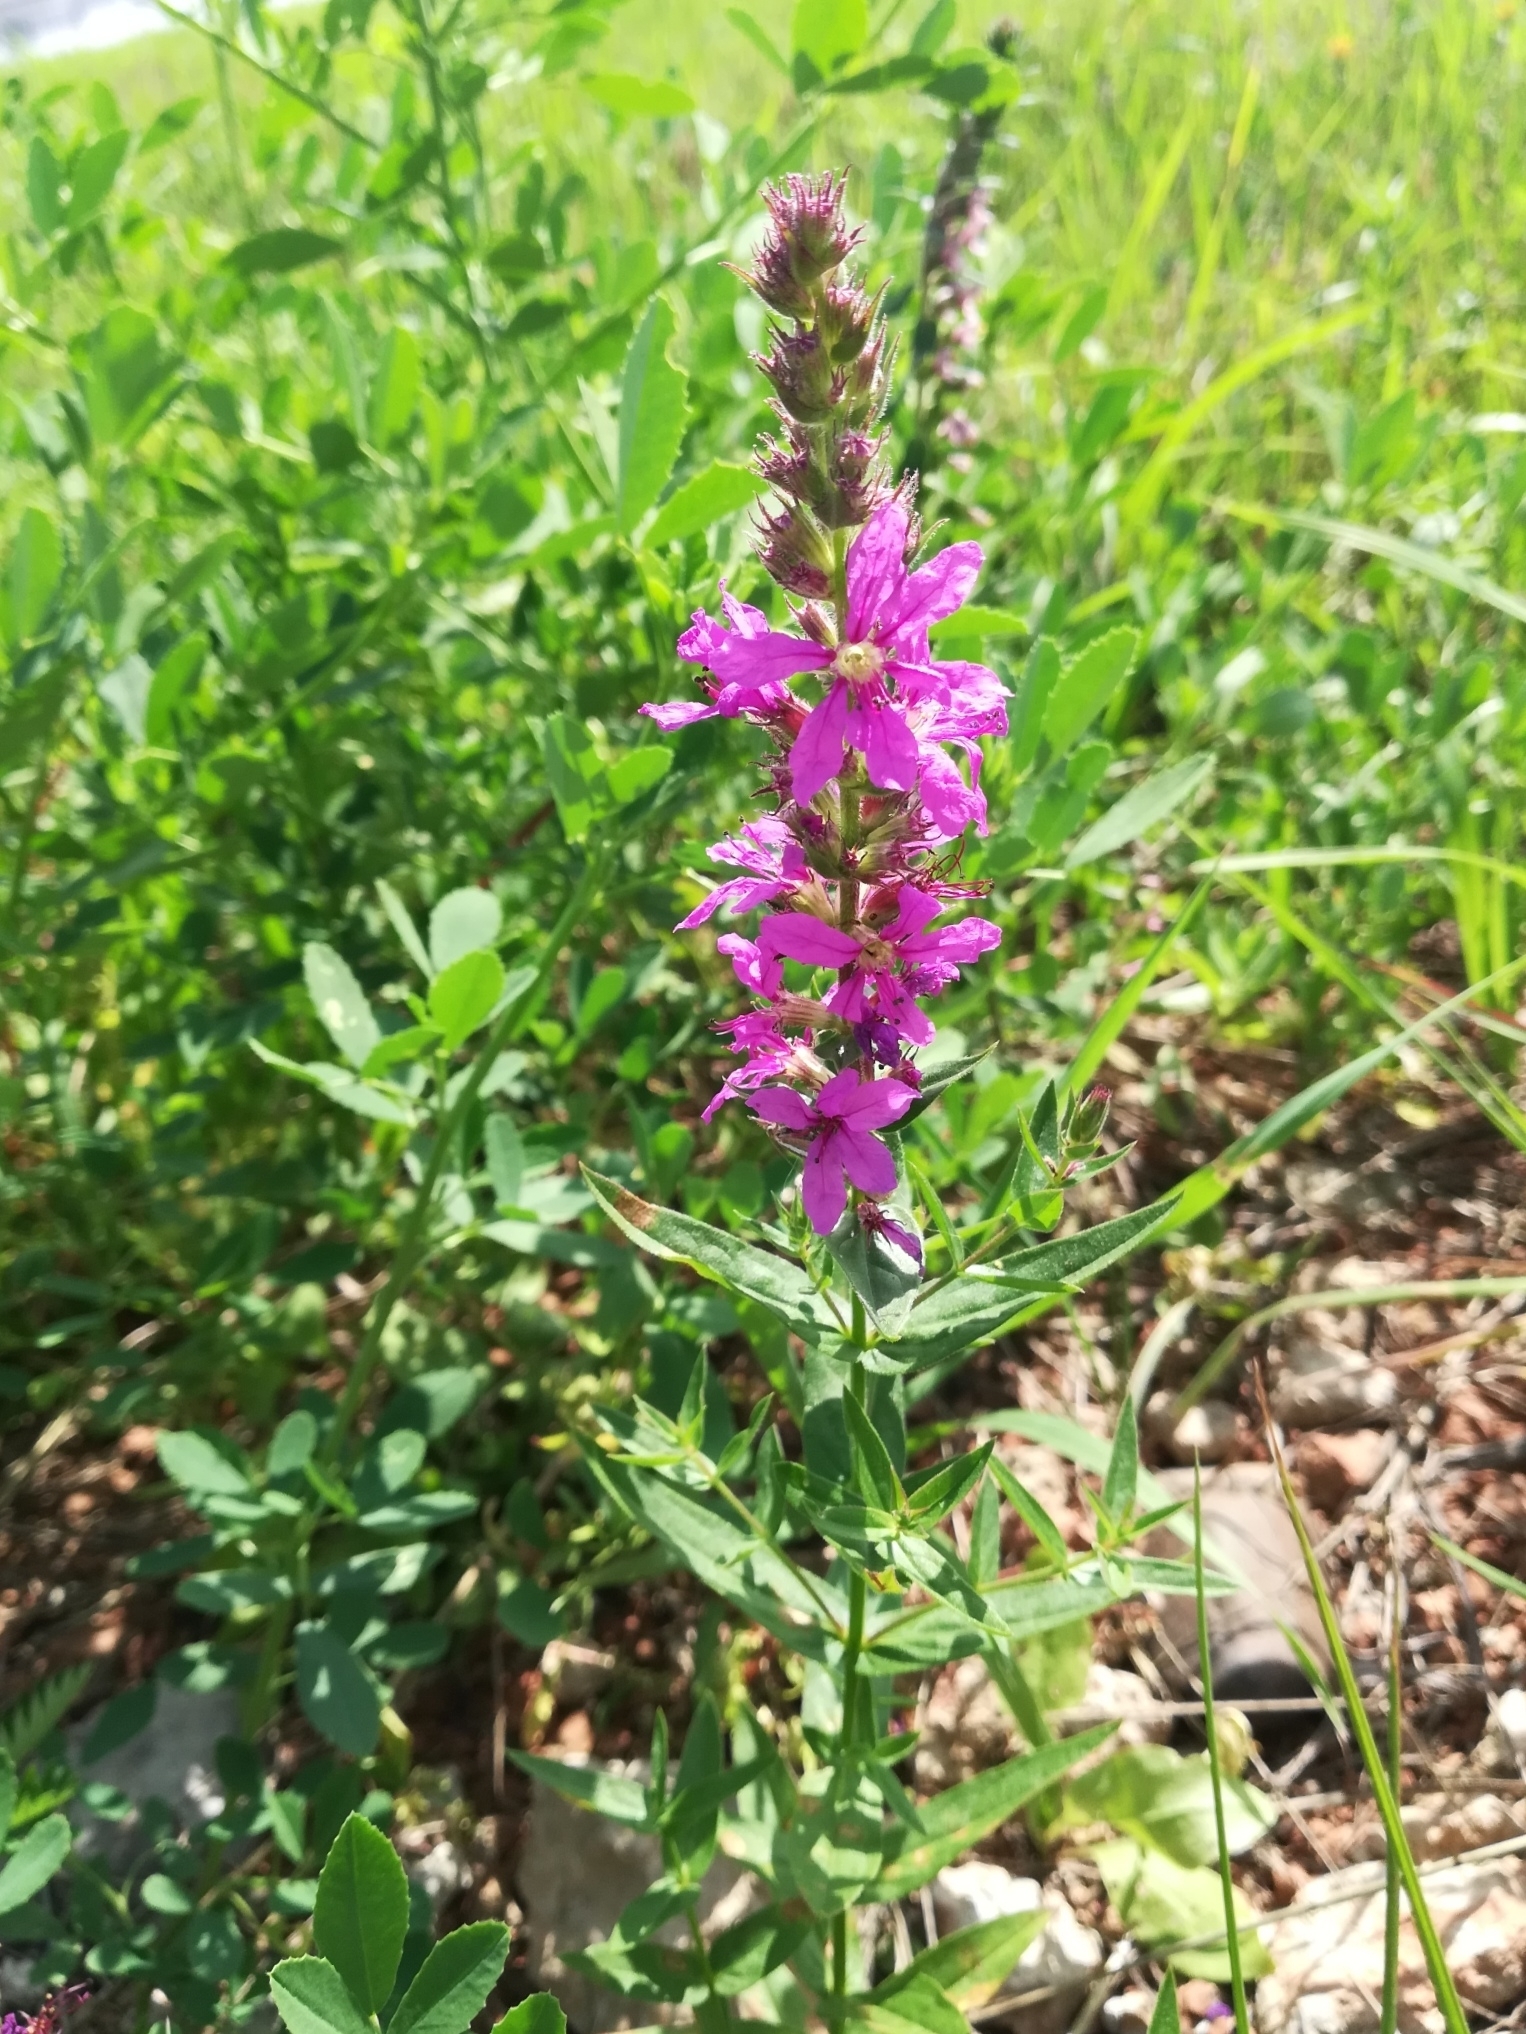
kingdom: Plantae
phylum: Tracheophyta
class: Magnoliopsida
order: Myrtales
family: Lythraceae
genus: Lythrum
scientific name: Lythrum salicaria
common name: Purple loosestrife
